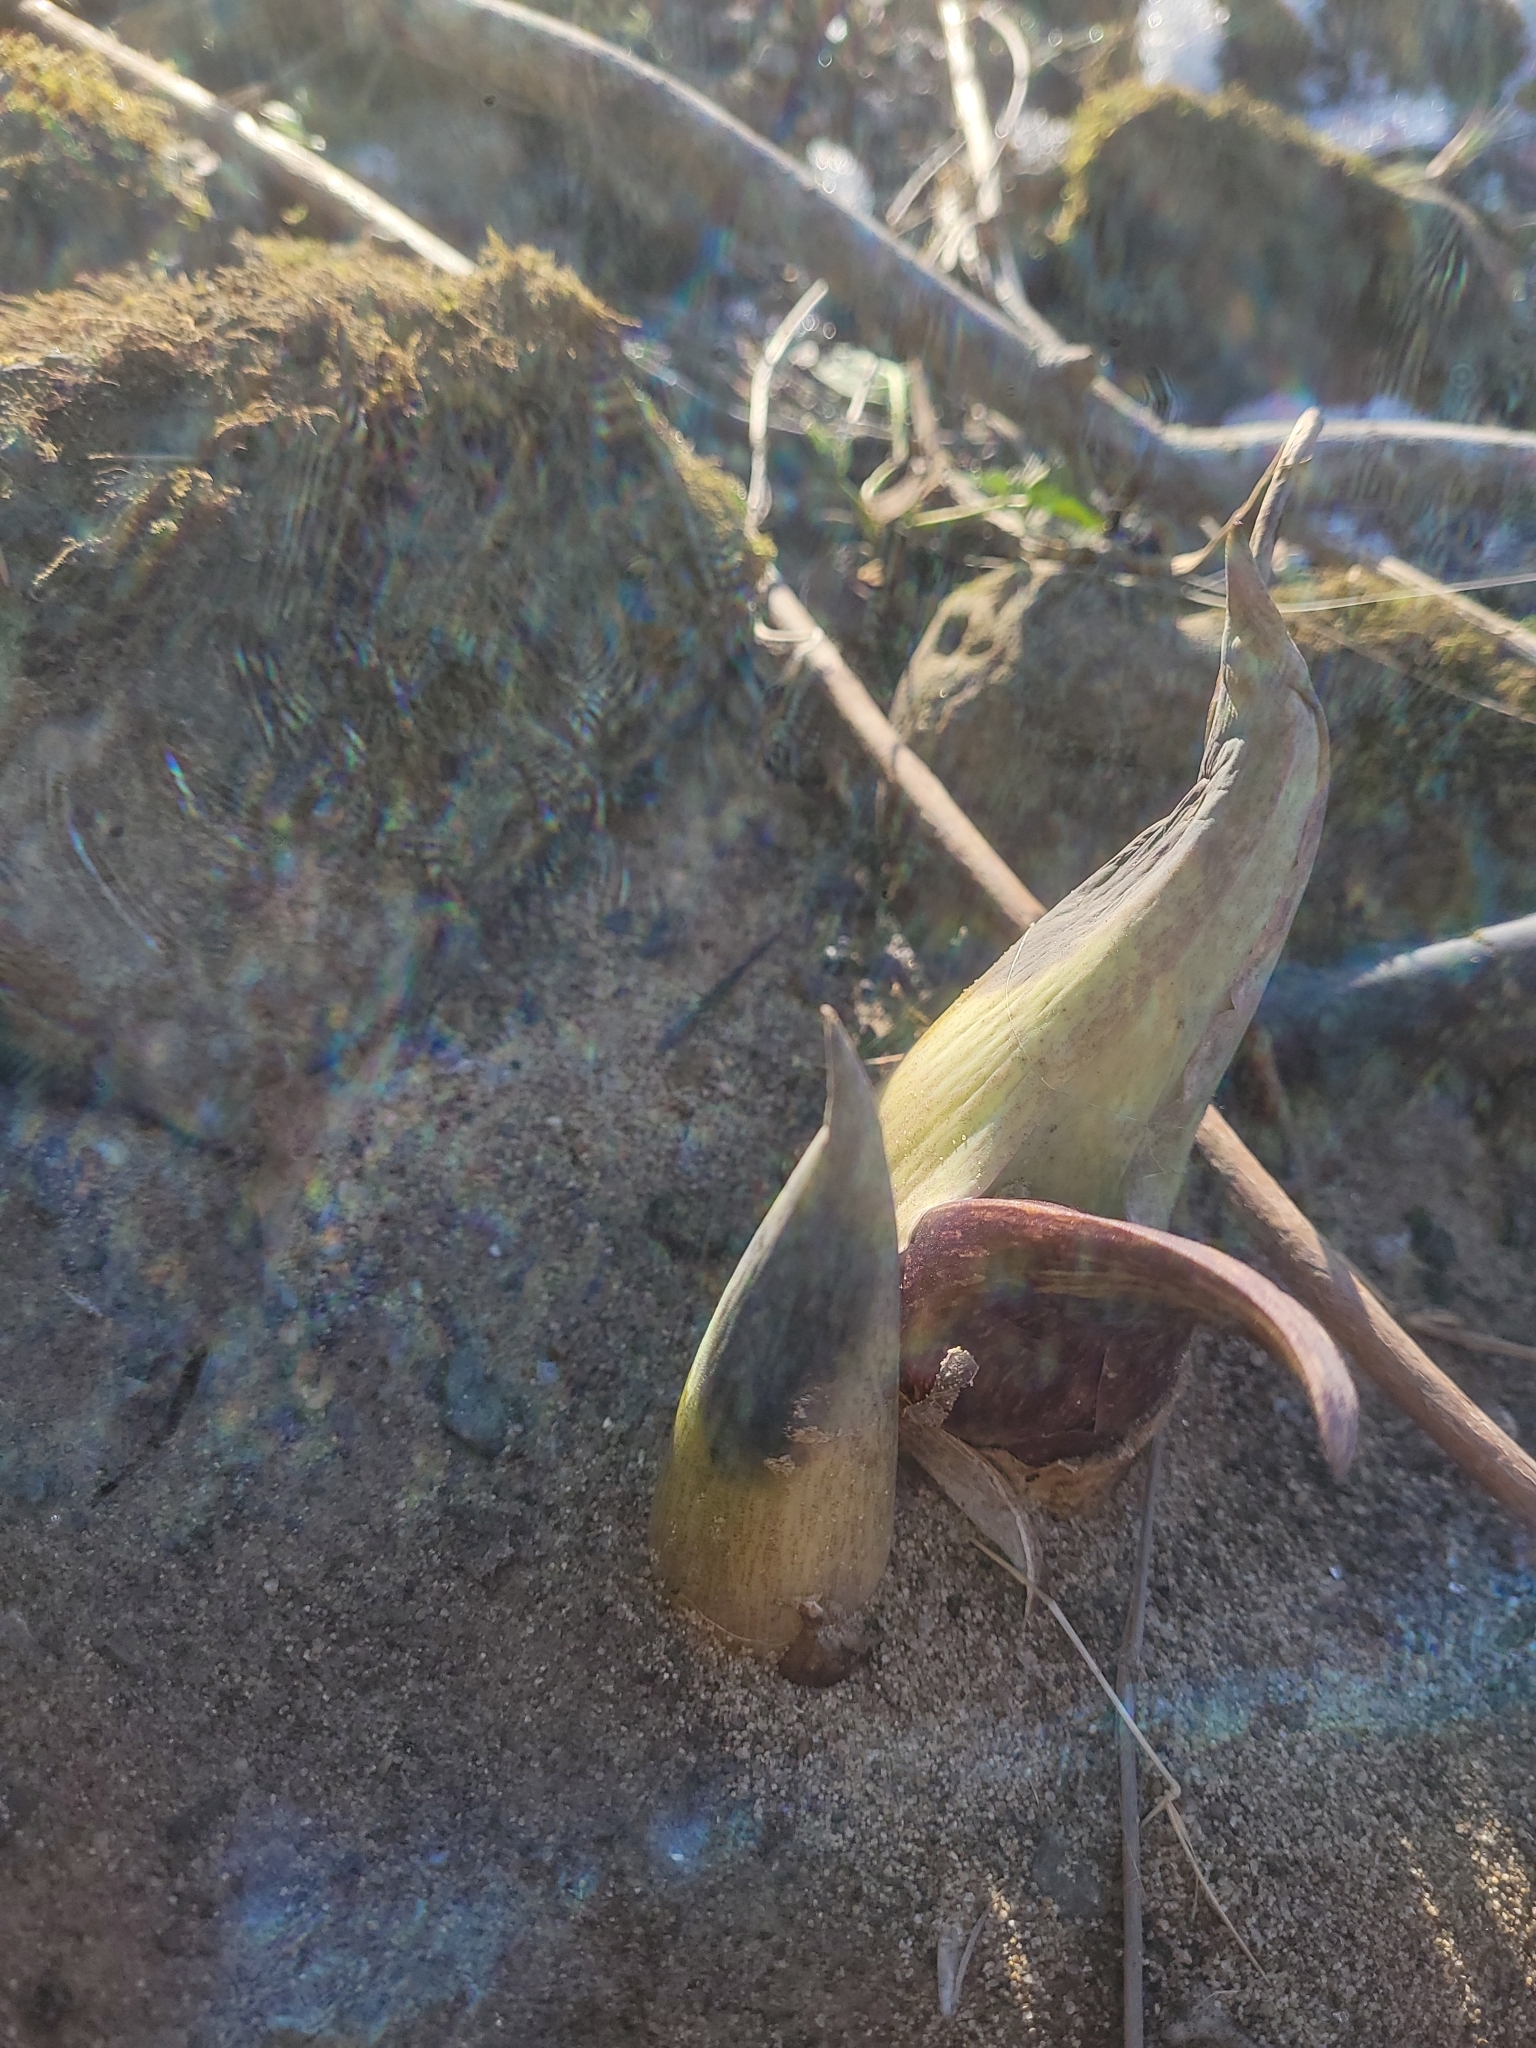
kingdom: Plantae
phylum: Tracheophyta
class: Liliopsida
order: Alismatales
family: Araceae
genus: Symplocarpus
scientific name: Symplocarpus foetidus
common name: Eastern skunk cabbage
